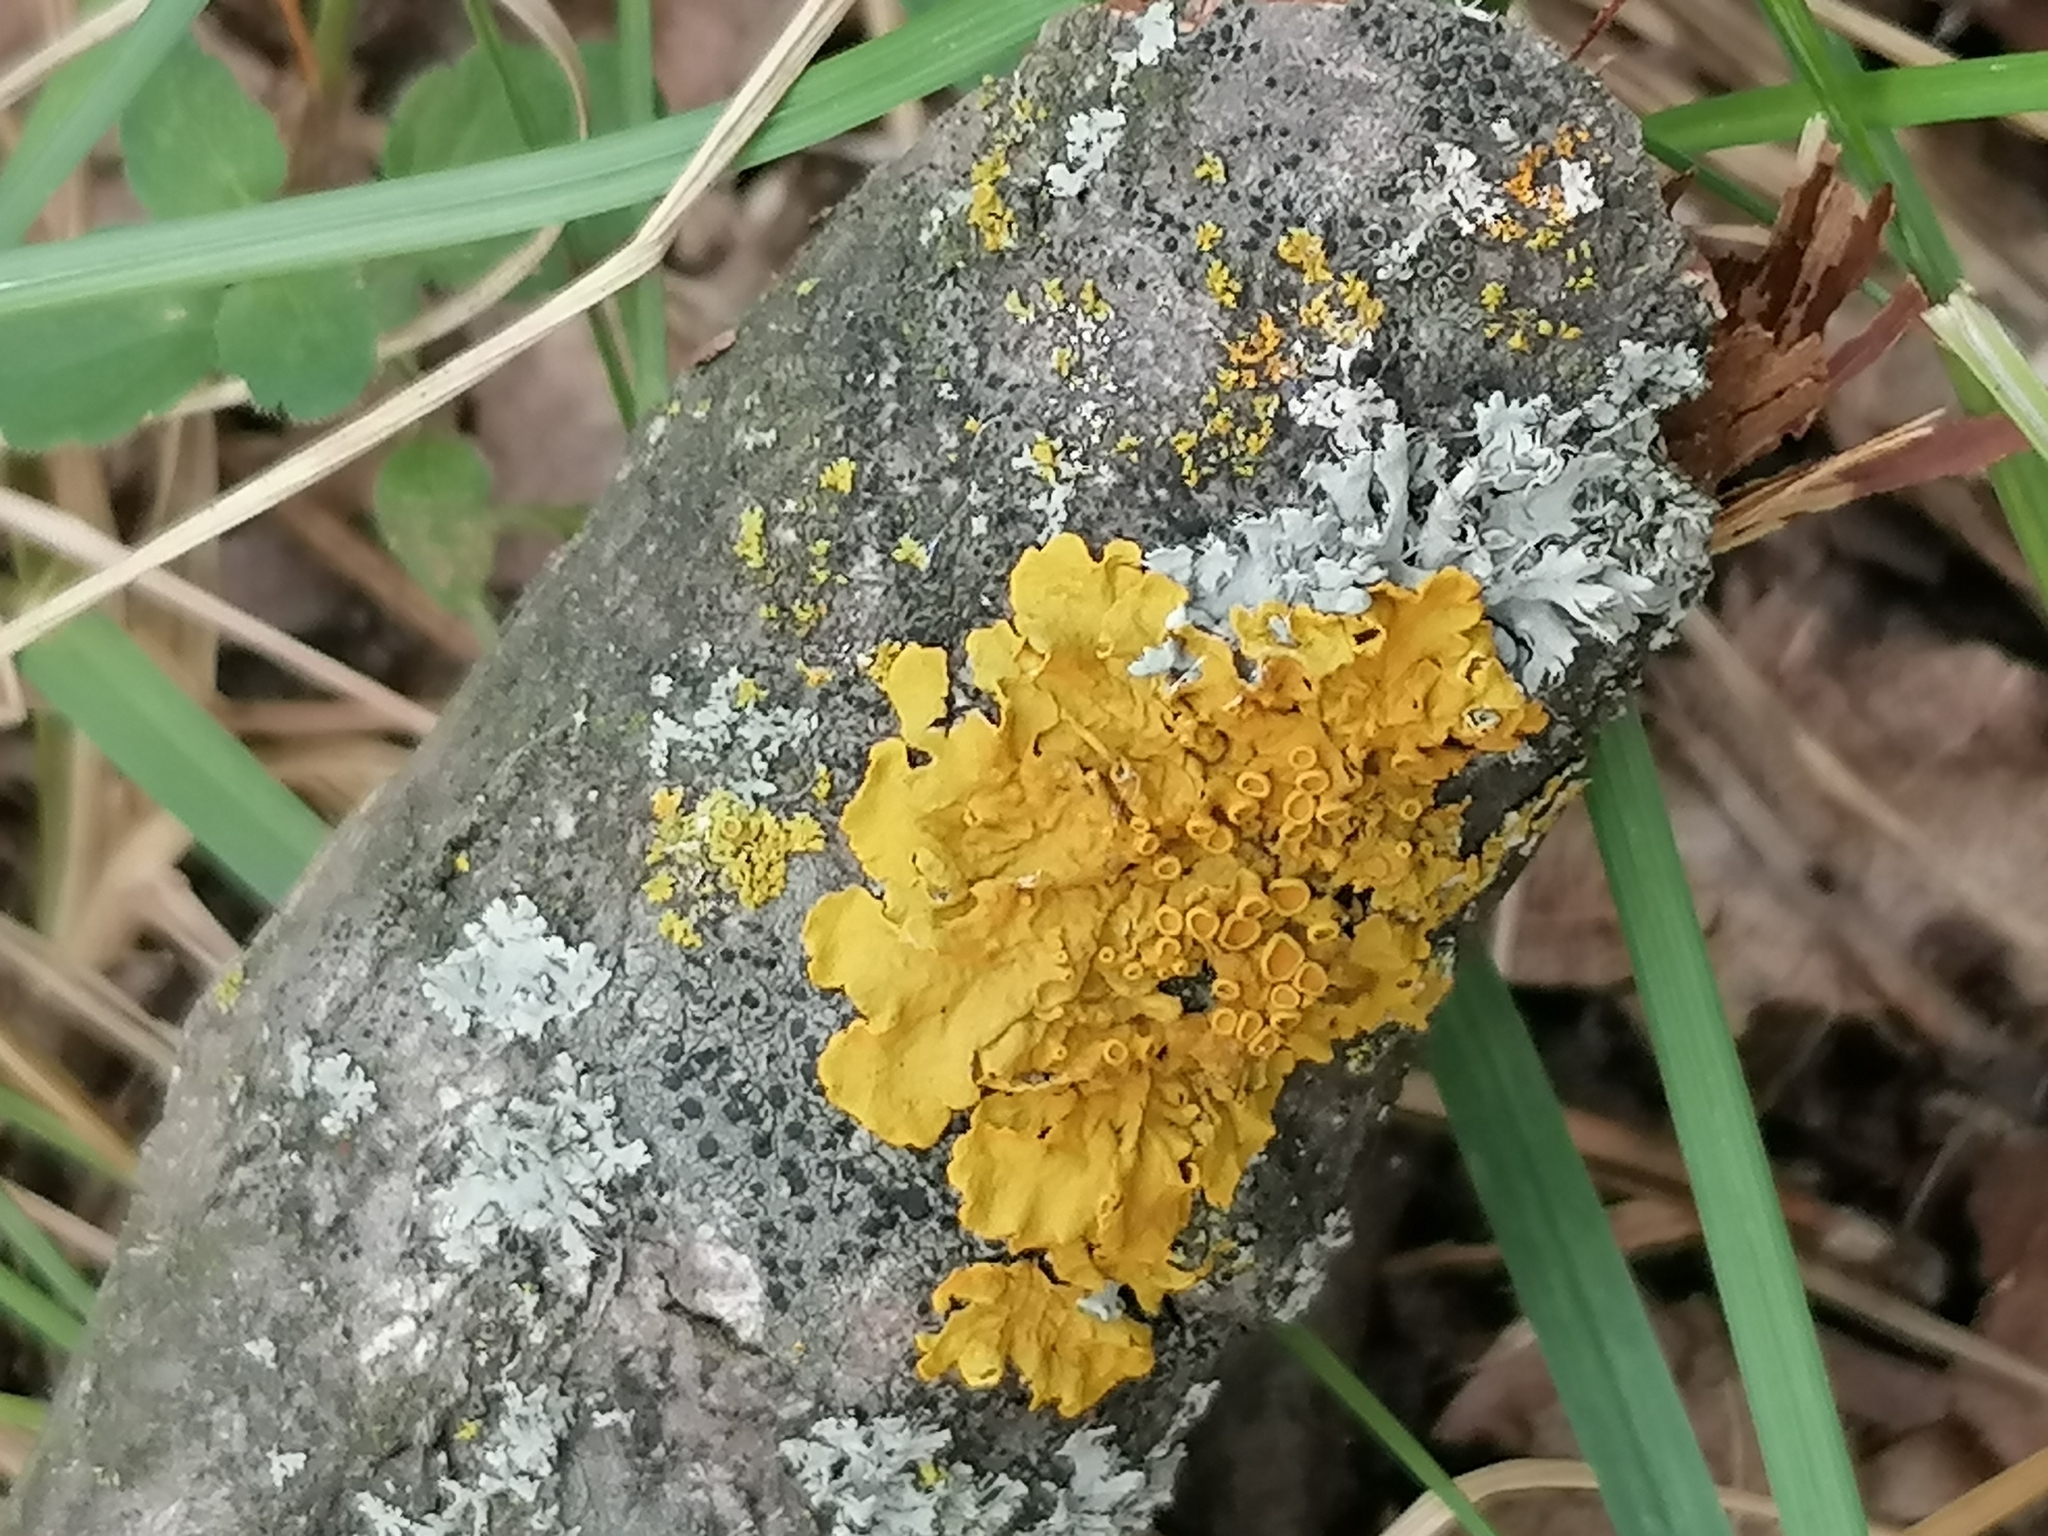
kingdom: Fungi
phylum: Ascomycota
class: Lecanoromycetes
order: Teloschistales
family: Teloschistaceae
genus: Xanthoria
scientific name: Xanthoria parietina
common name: Common orange lichen
